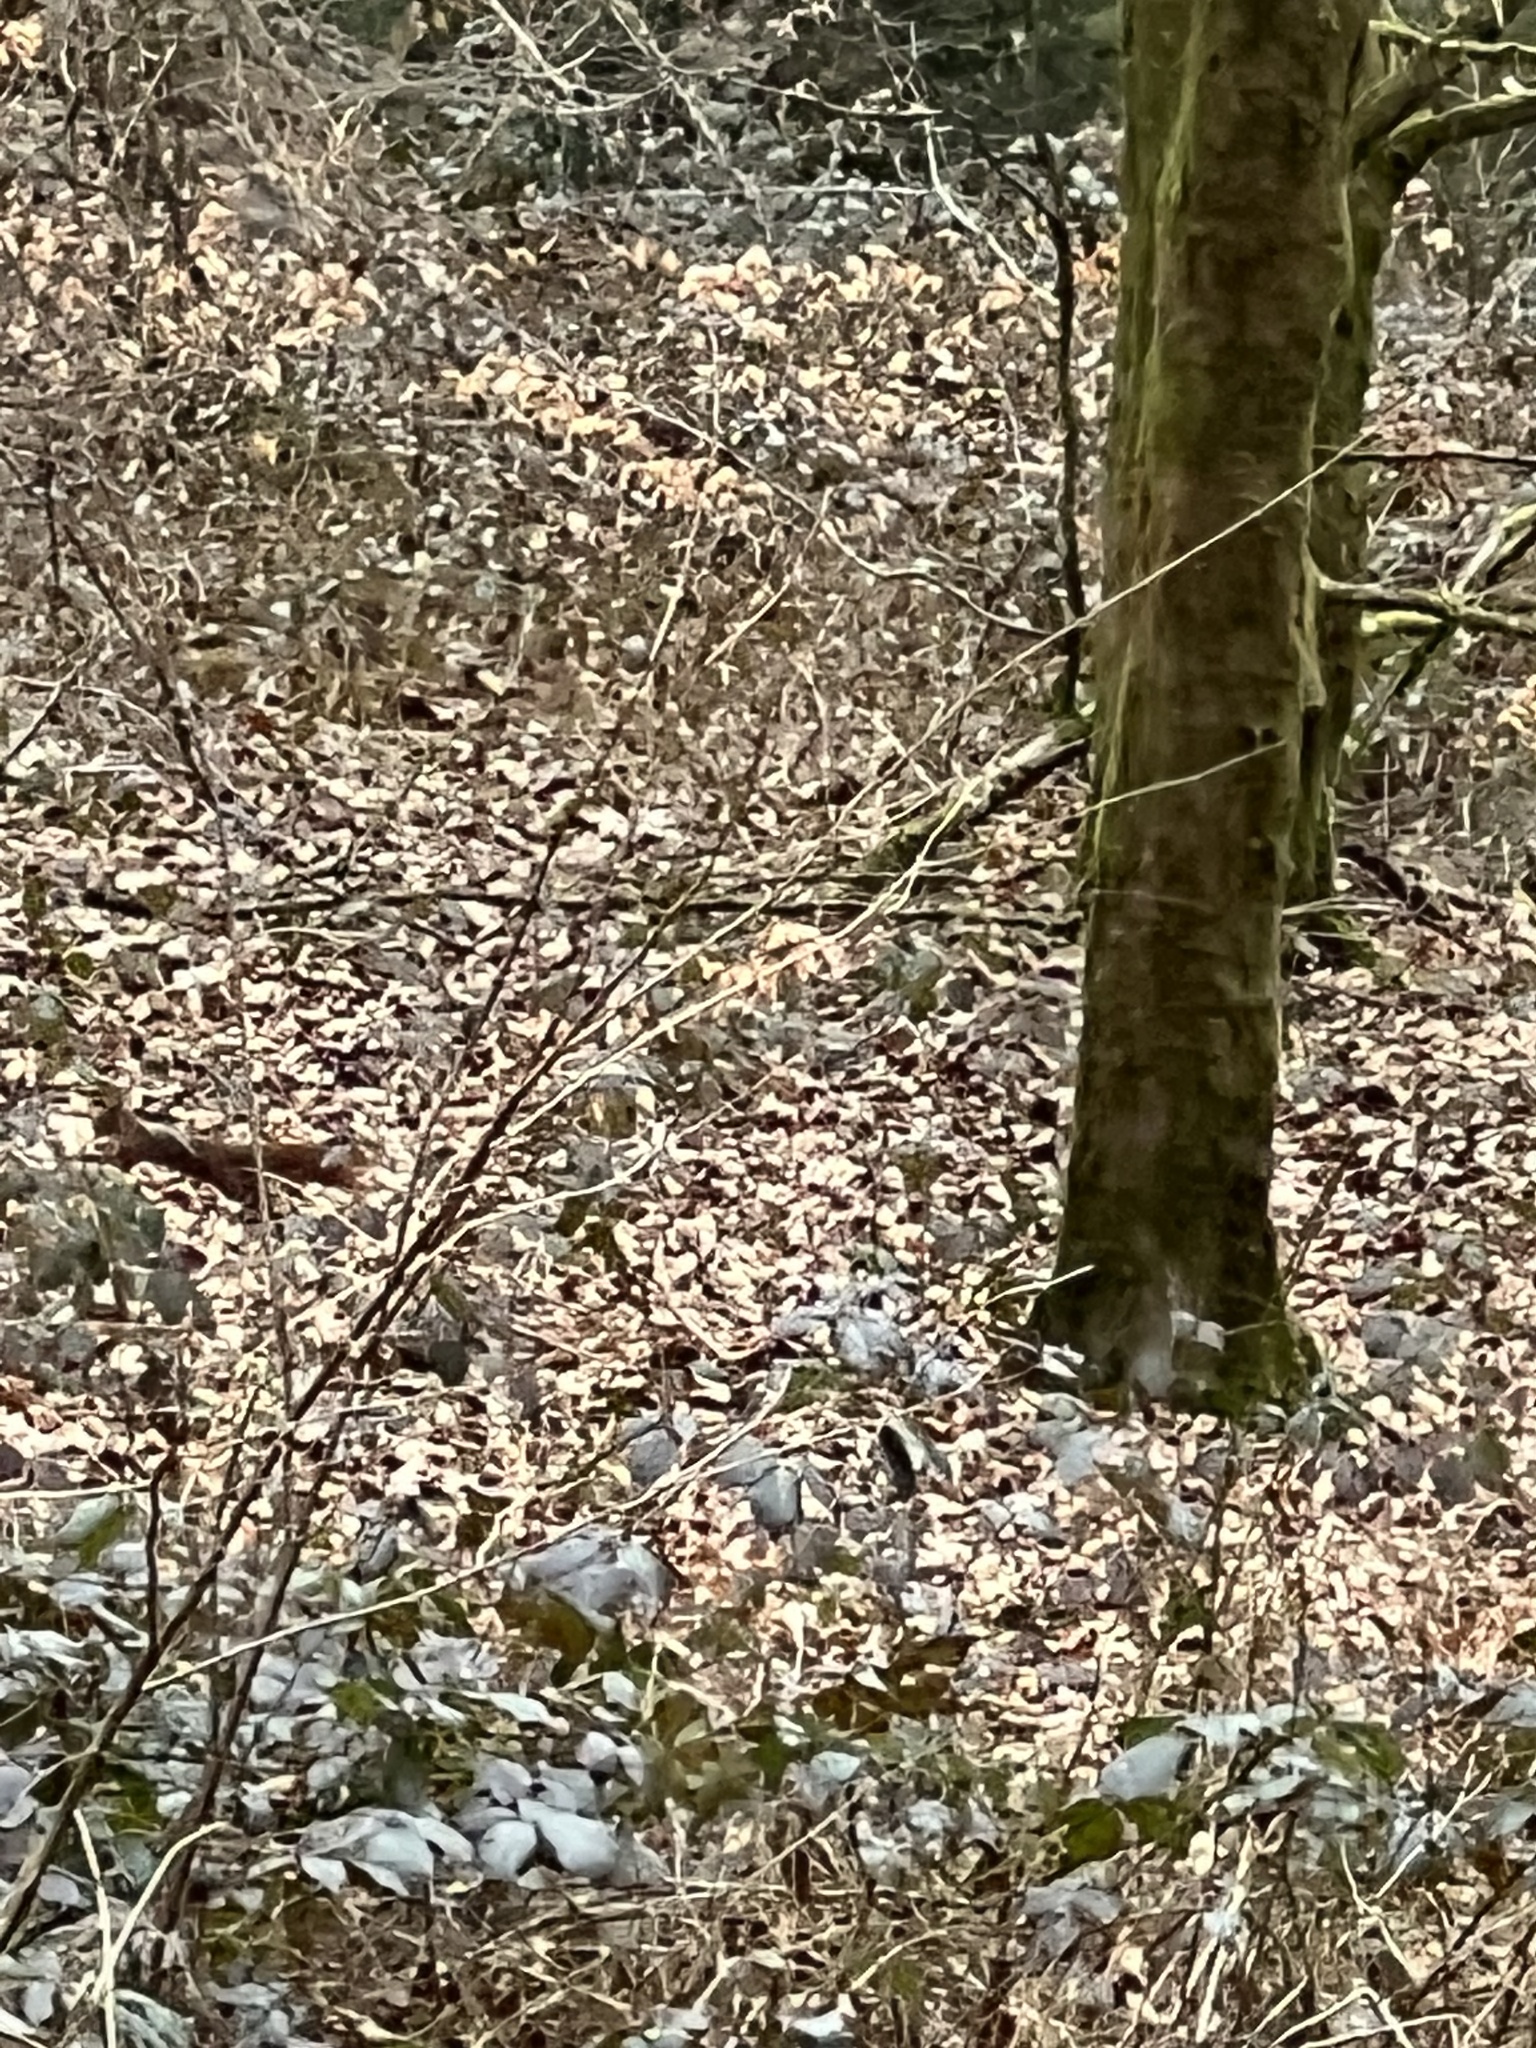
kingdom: Animalia
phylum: Chordata
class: Mammalia
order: Rodentia
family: Sciuridae
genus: Sciurus
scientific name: Sciurus vulgaris
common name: Eurasian red squirrel
